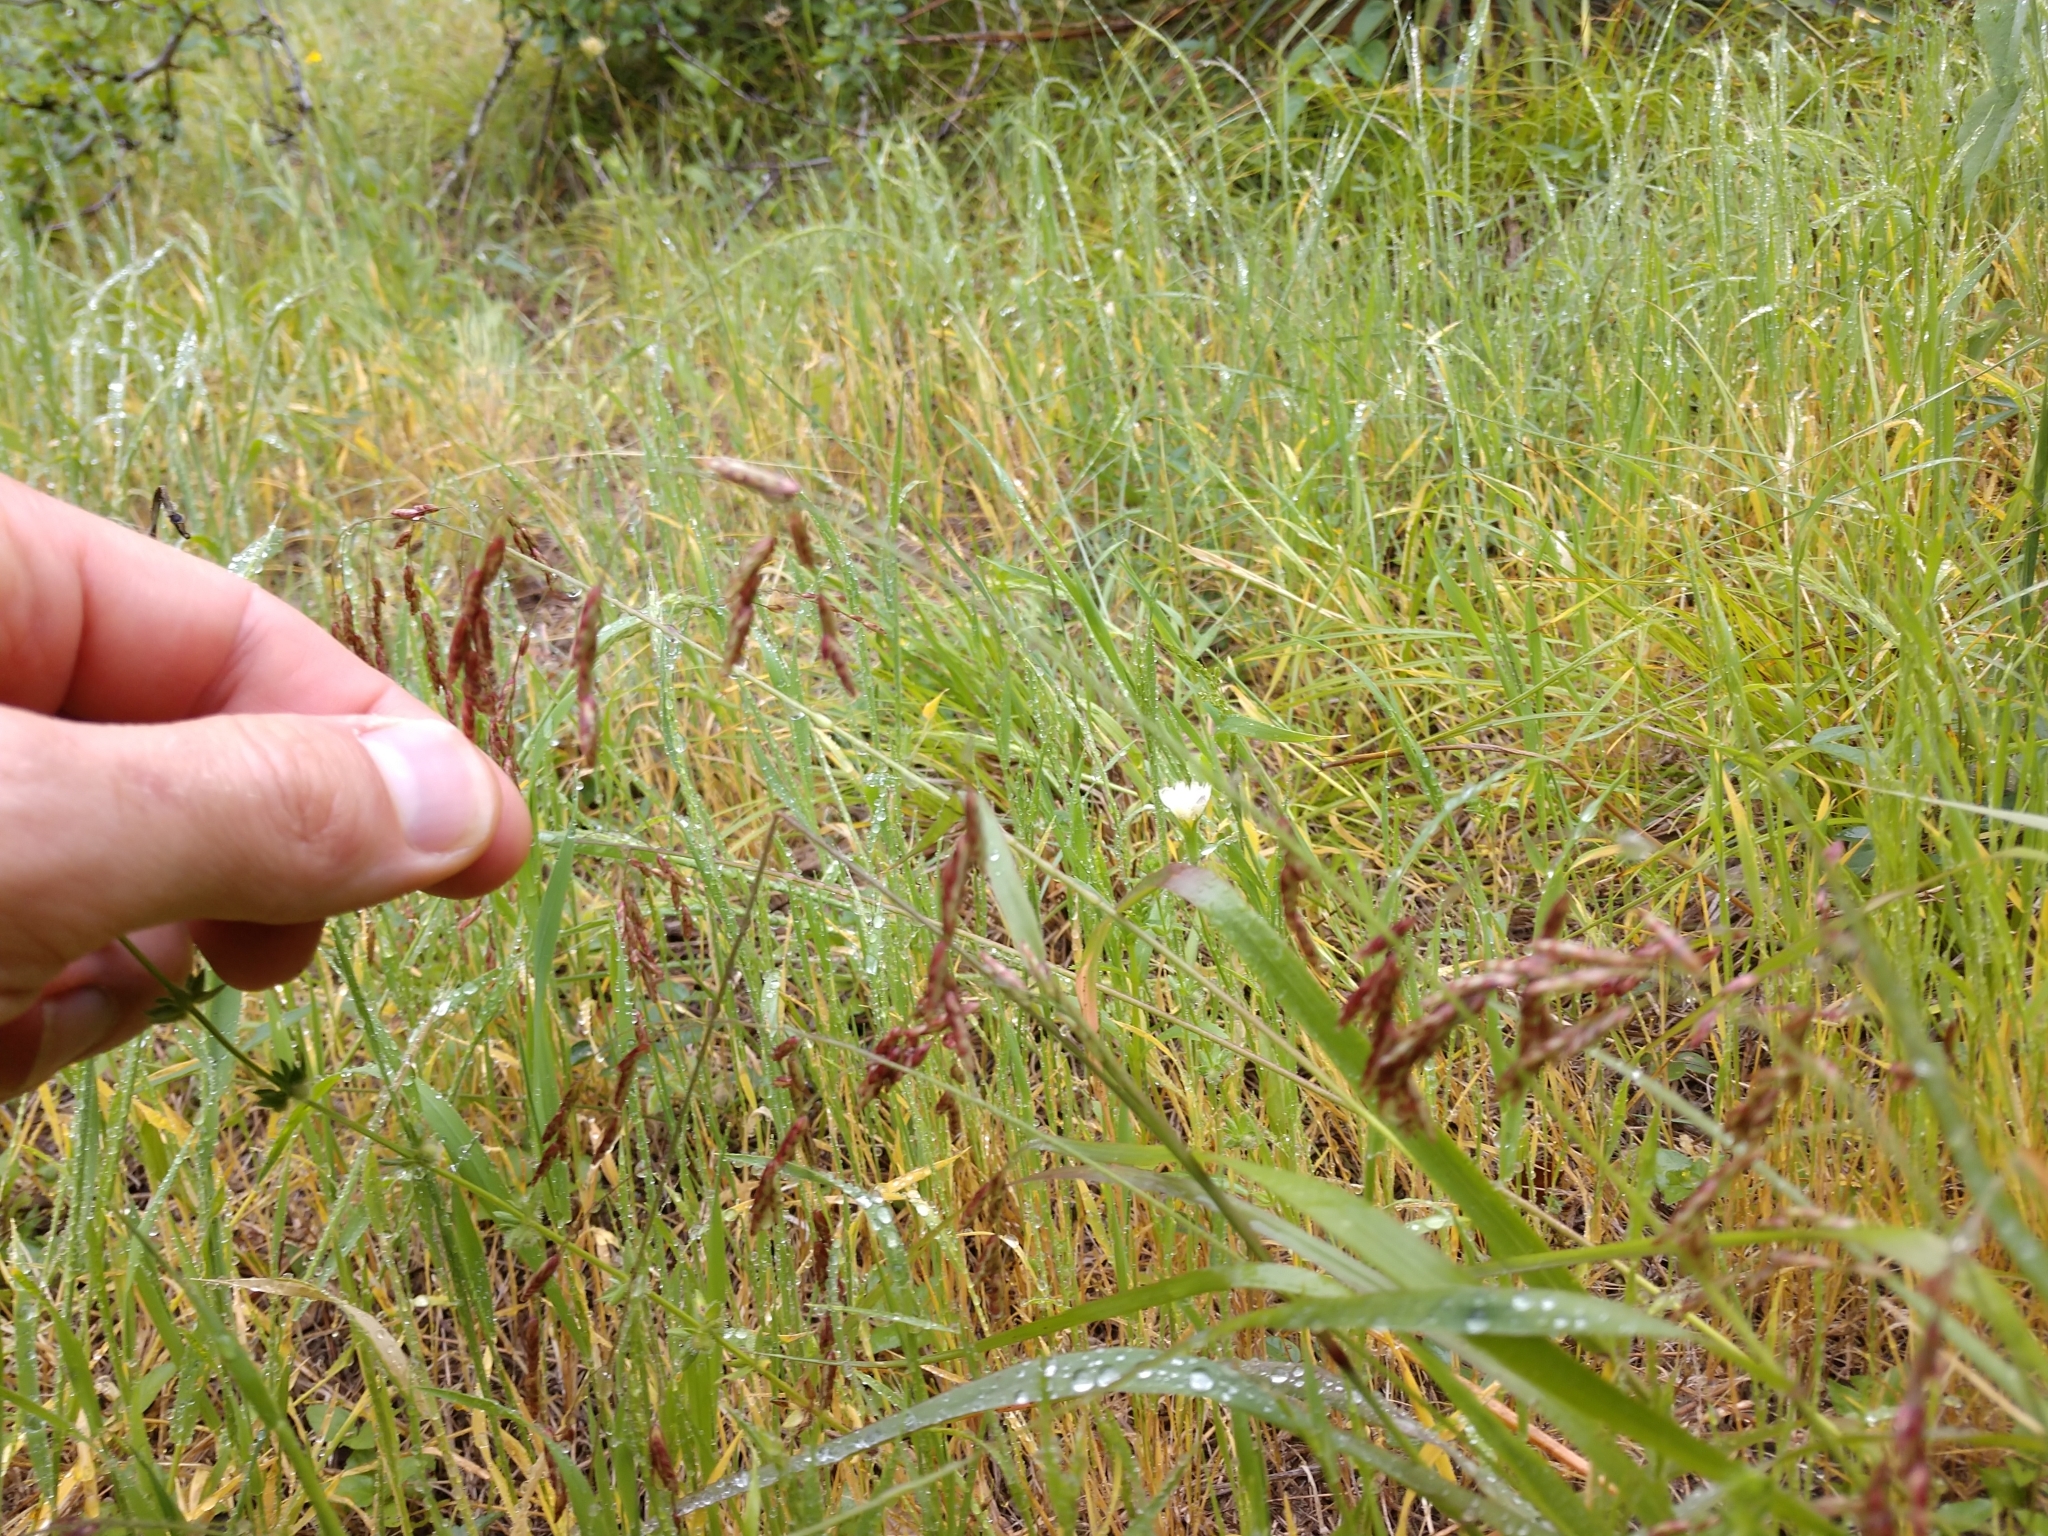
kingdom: Plantae
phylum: Tracheophyta
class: Liliopsida
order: Poales
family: Poaceae
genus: Tridens
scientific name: Tridens texanus
